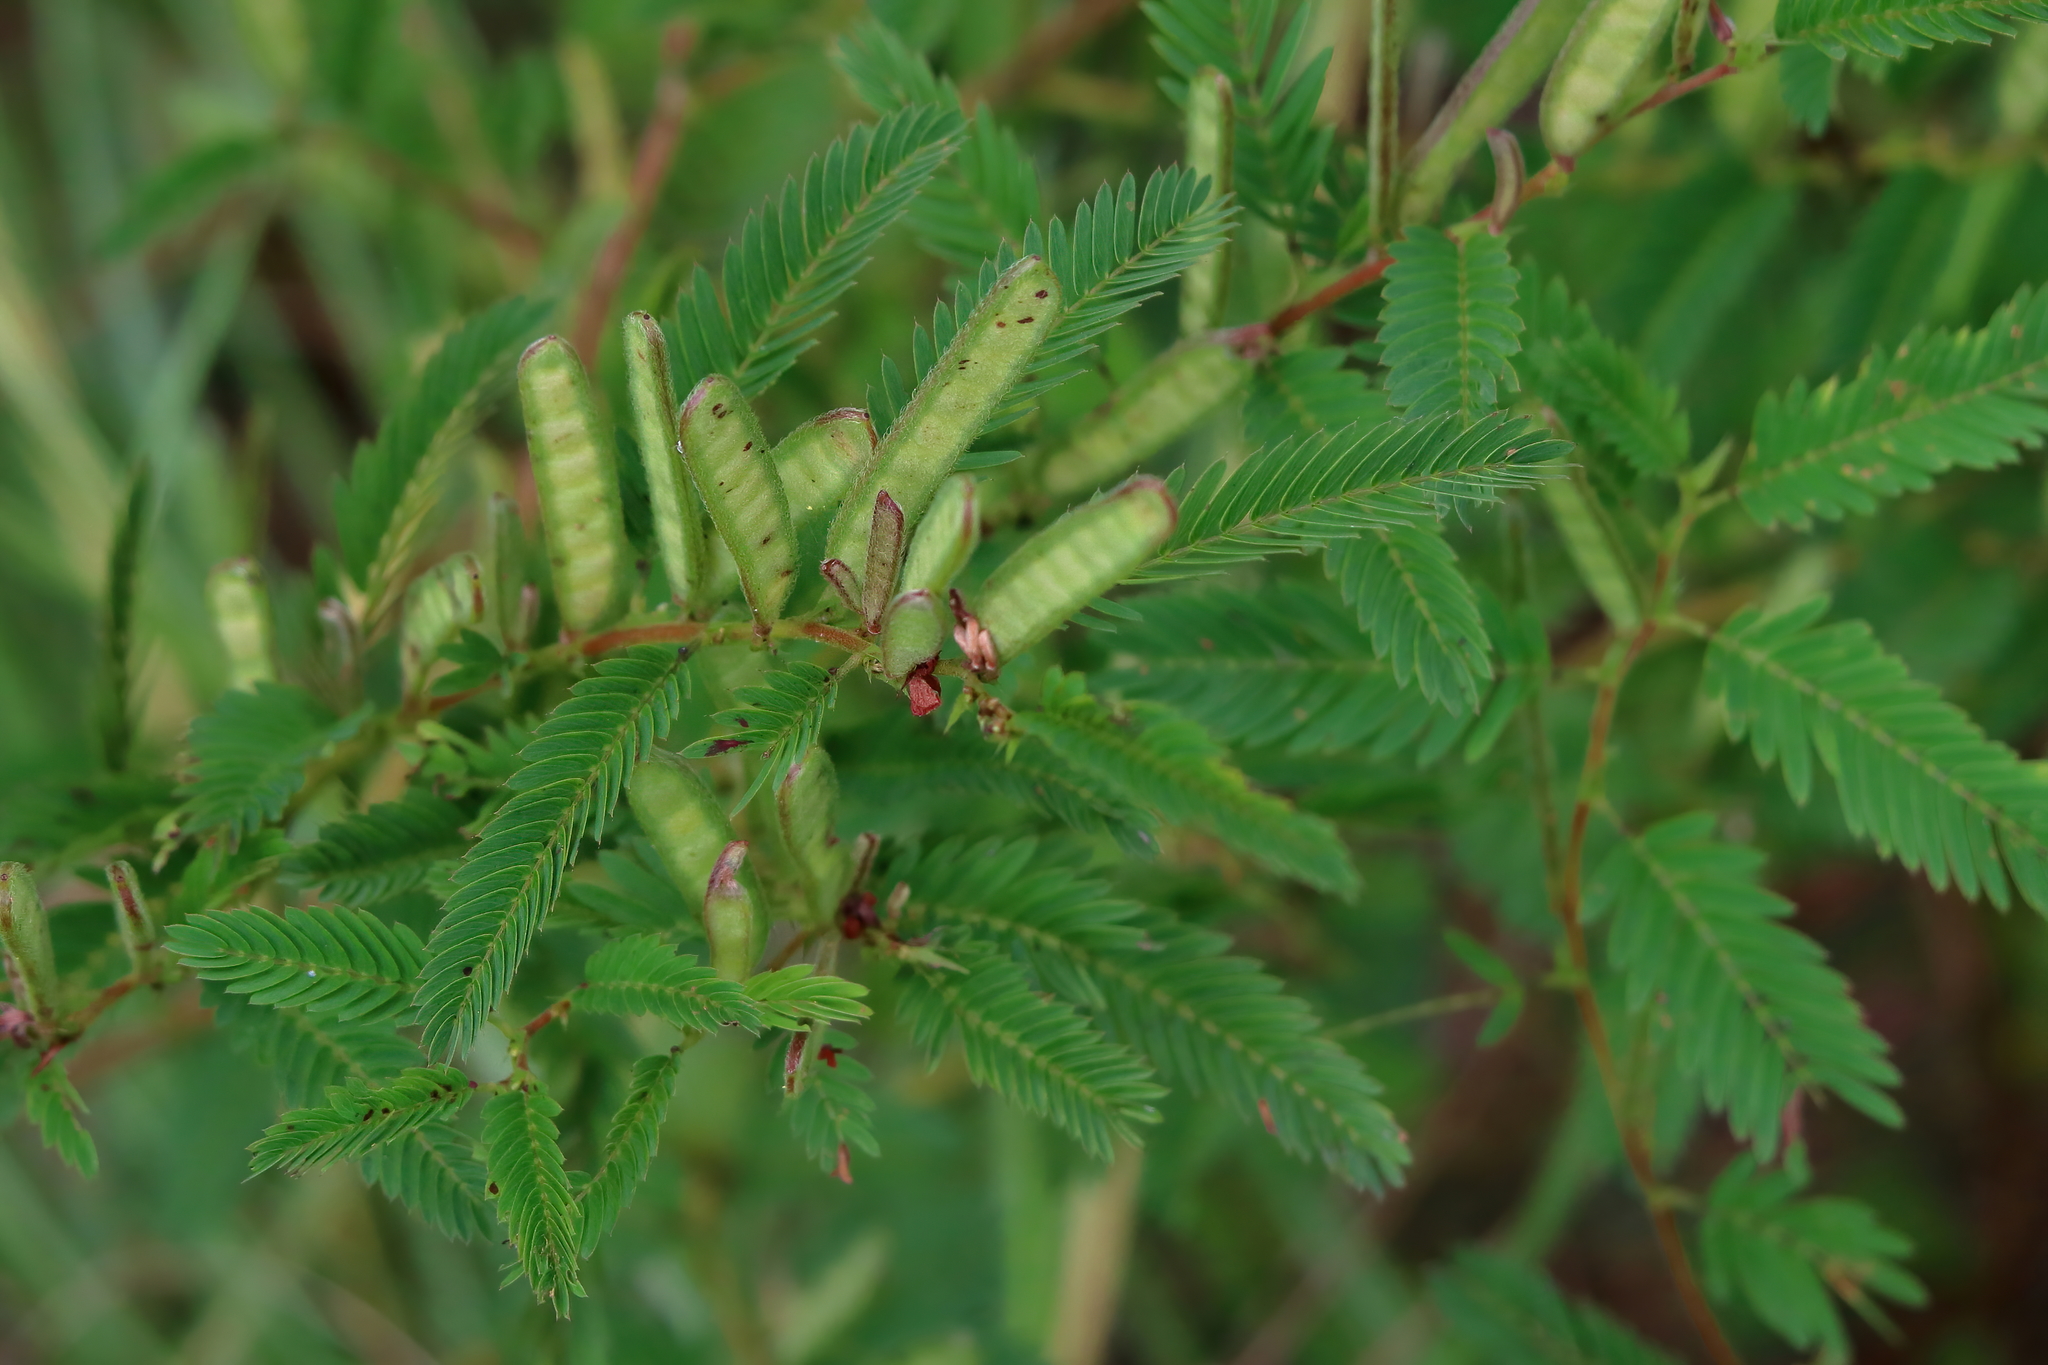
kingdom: Plantae
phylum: Tracheophyta
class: Magnoliopsida
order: Fabales
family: Fabaceae
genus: Chamaecrista
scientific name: Chamaecrista nictitans
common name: Sensitive cassia
